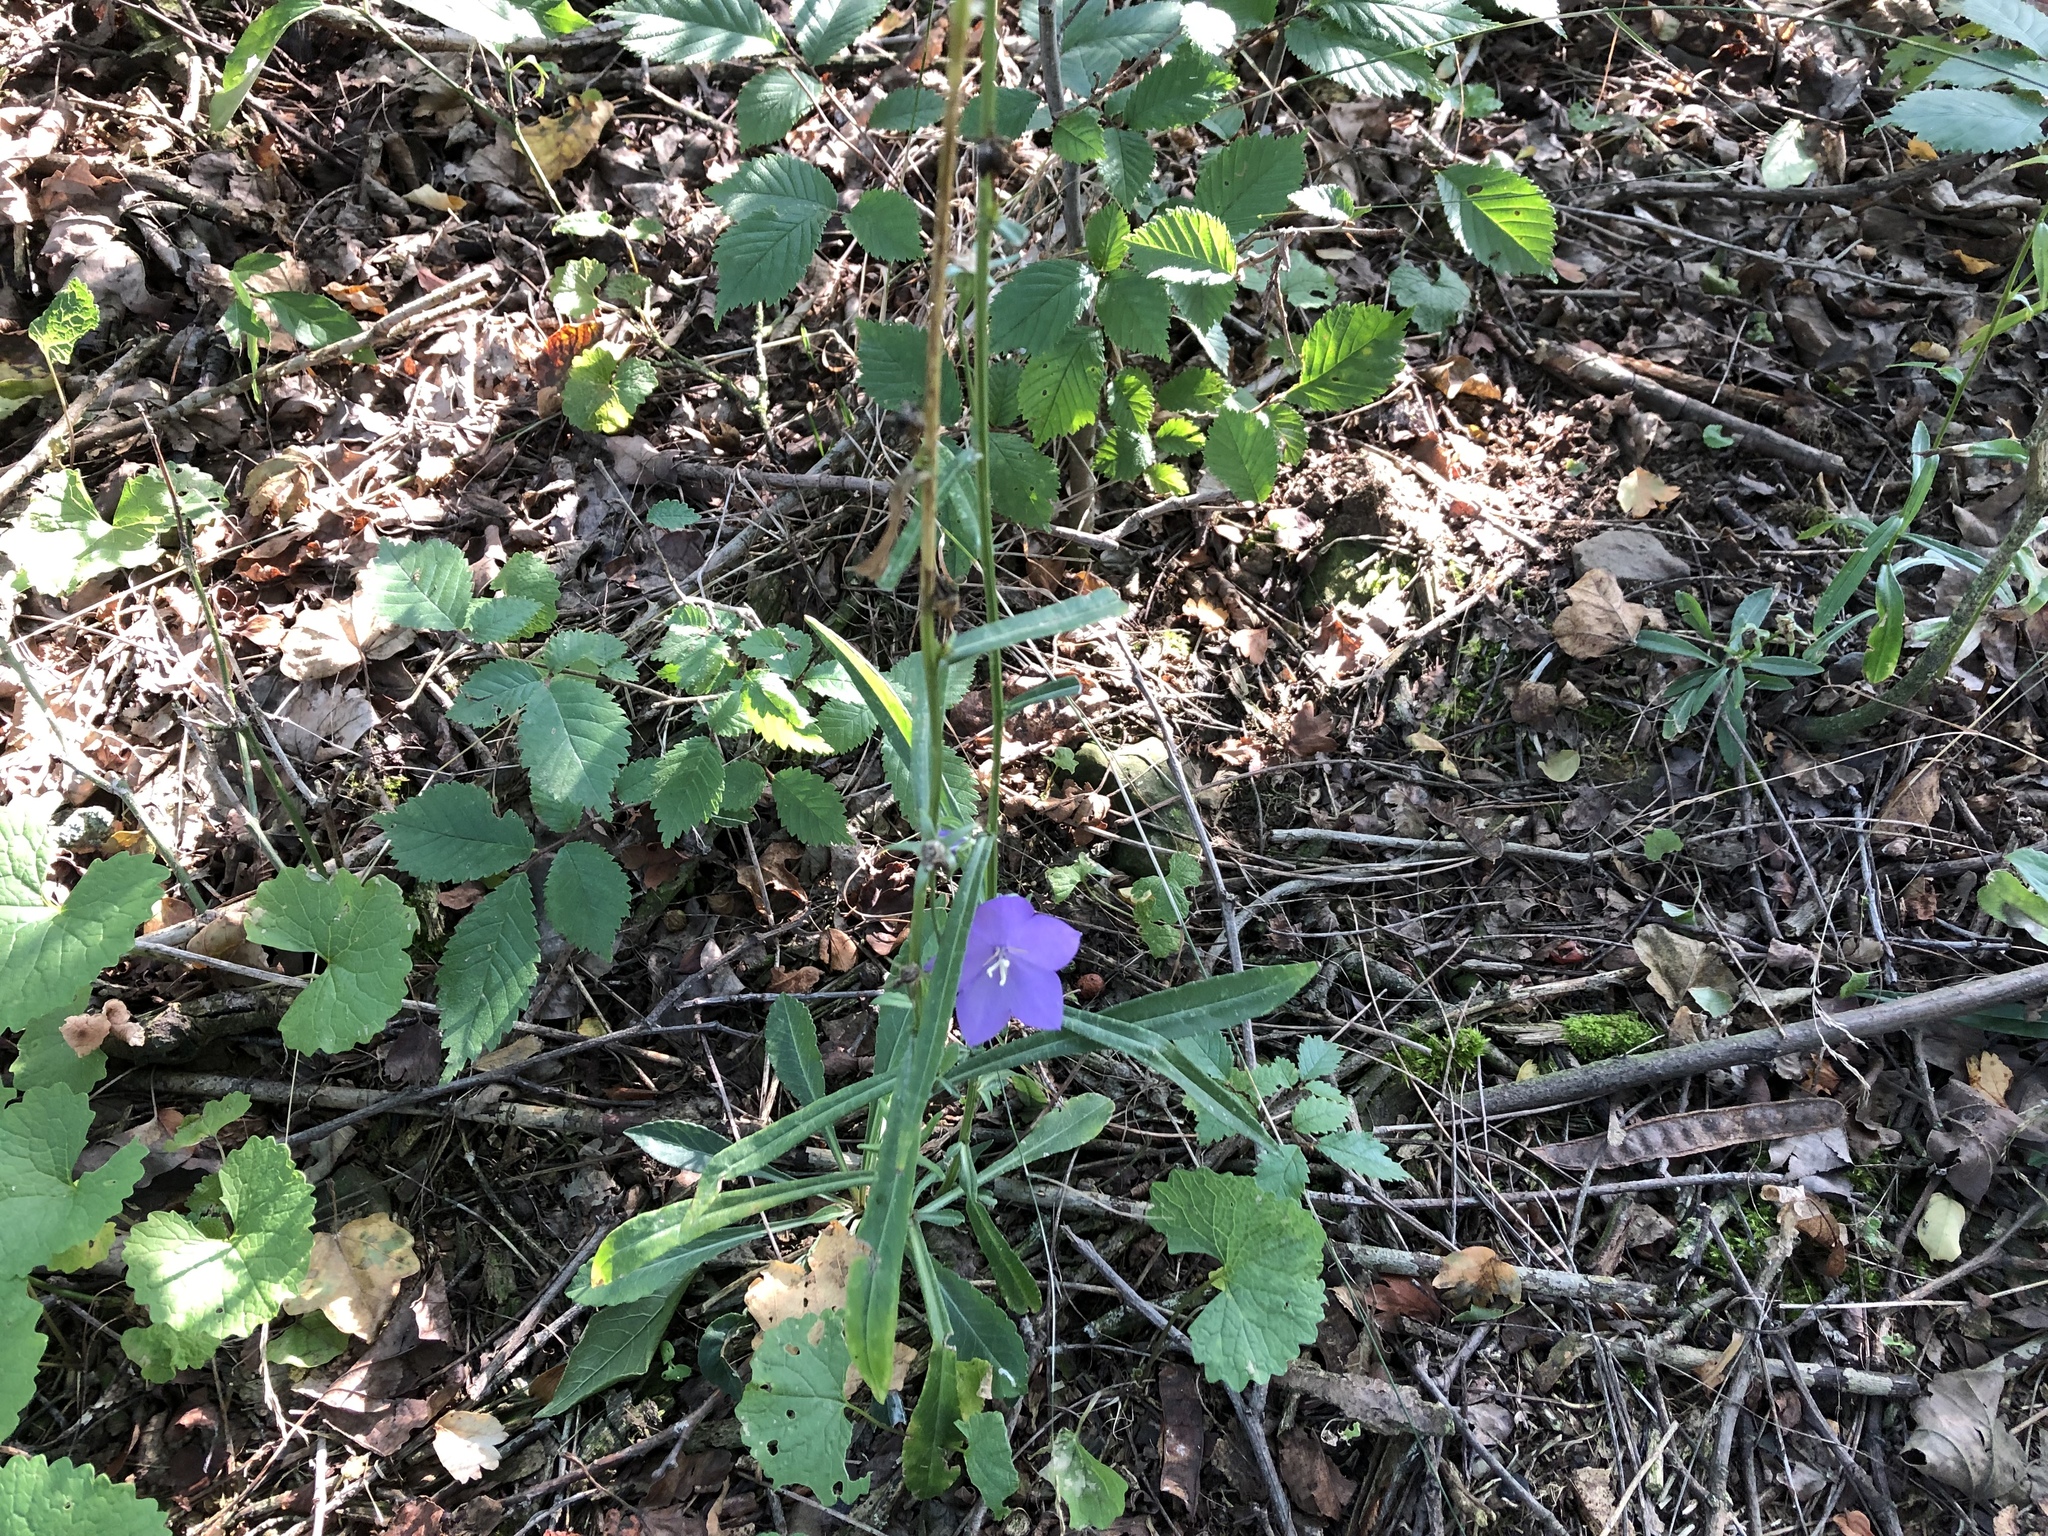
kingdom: Plantae
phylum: Tracheophyta
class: Magnoliopsida
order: Asterales
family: Campanulaceae
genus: Campanula
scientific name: Campanula persicifolia
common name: Peach-leaved bellflower
